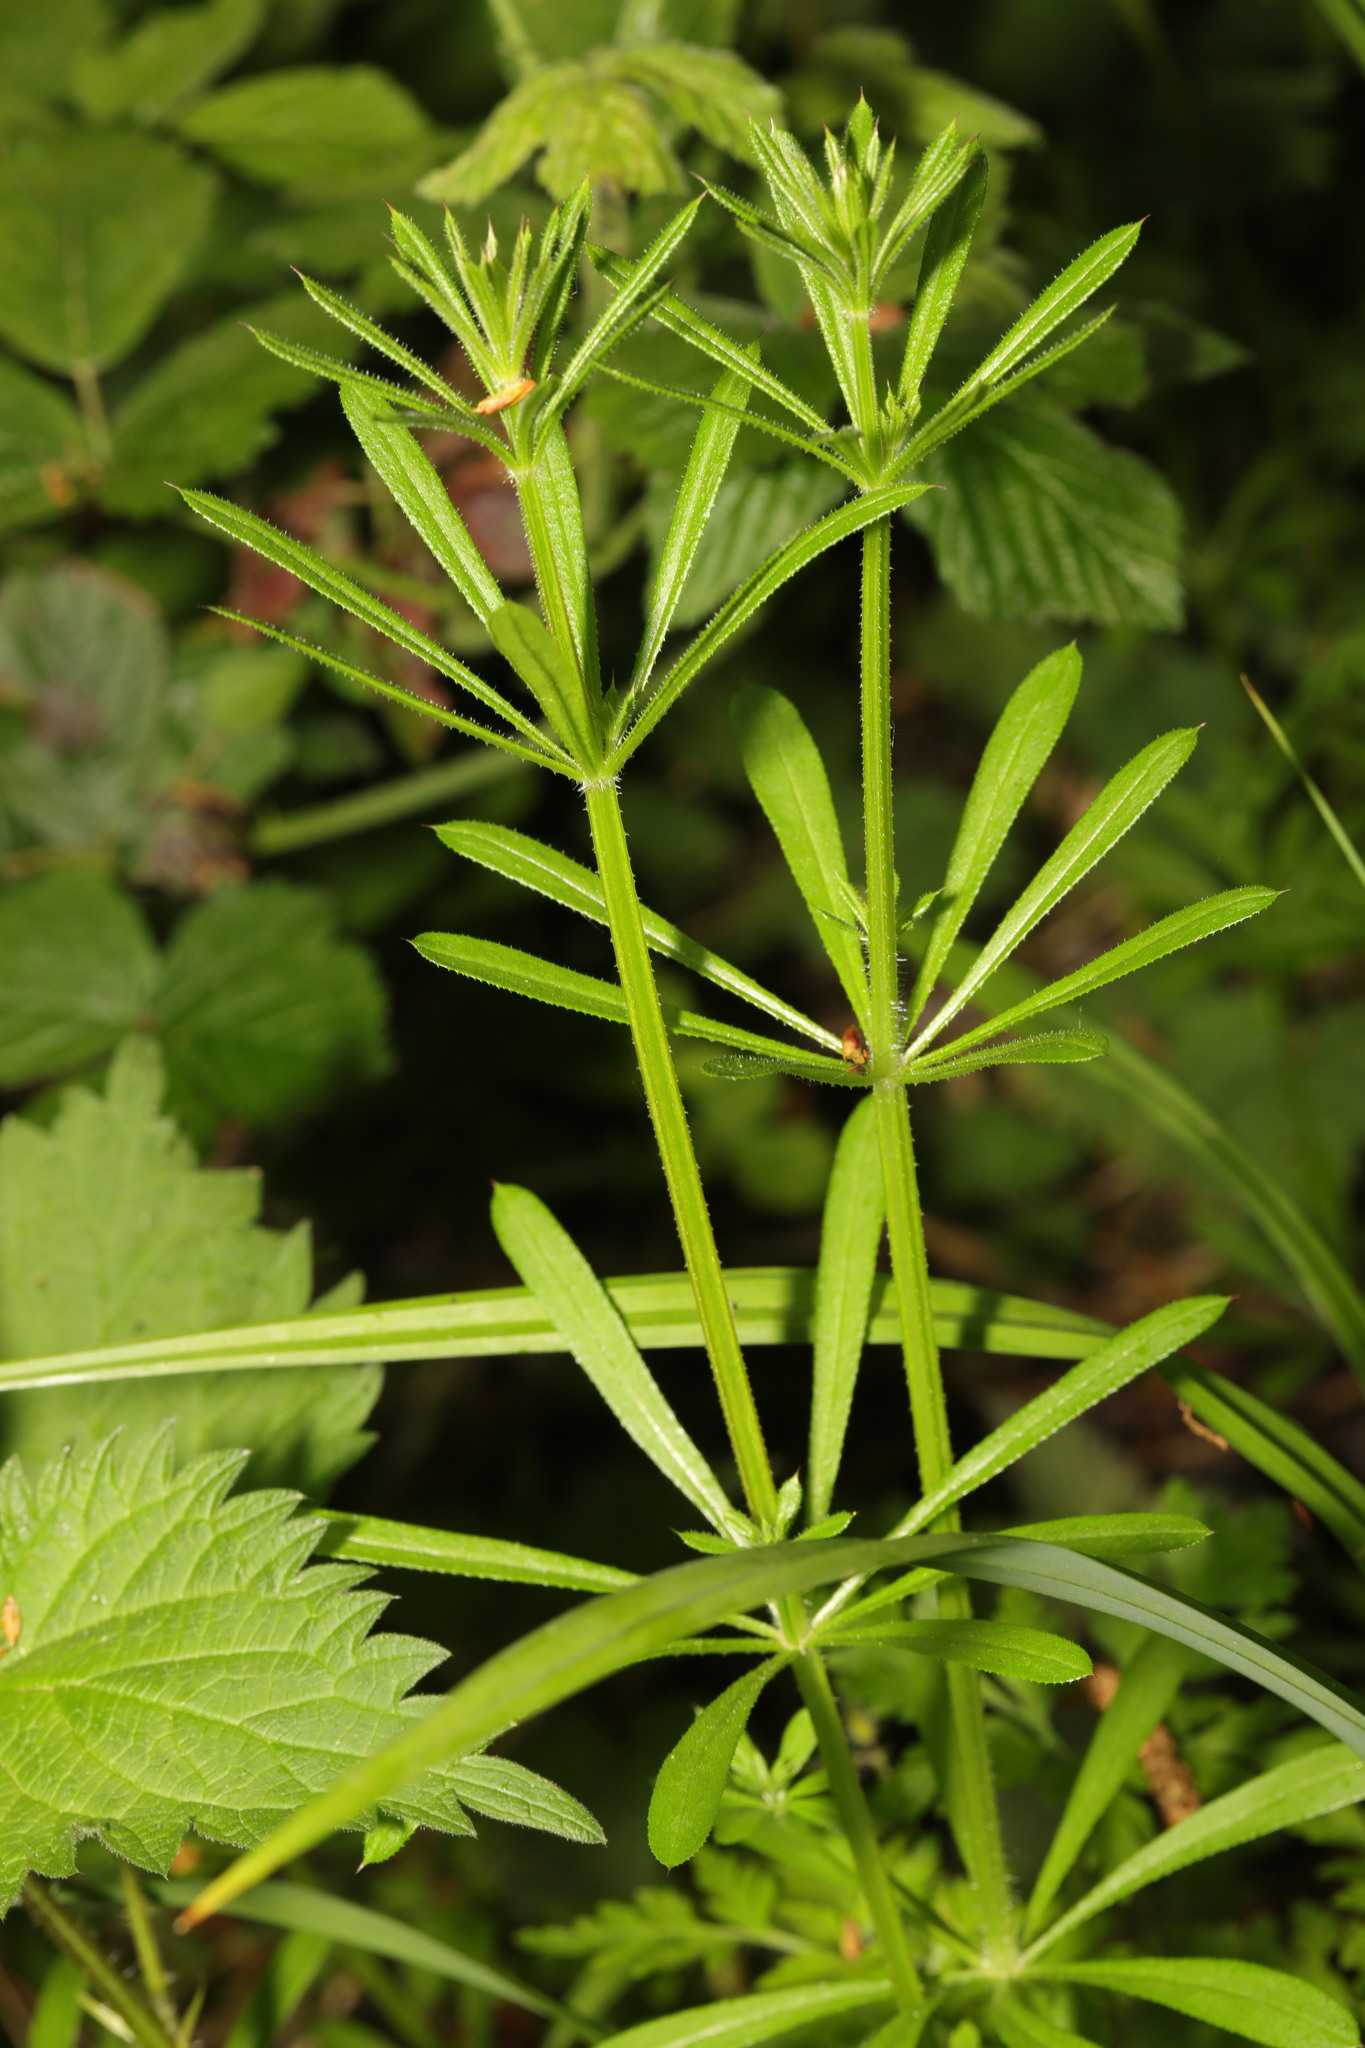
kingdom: Plantae
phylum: Tracheophyta
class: Magnoliopsida
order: Gentianales
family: Rubiaceae
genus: Galium
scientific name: Galium aparine
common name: Cleavers
